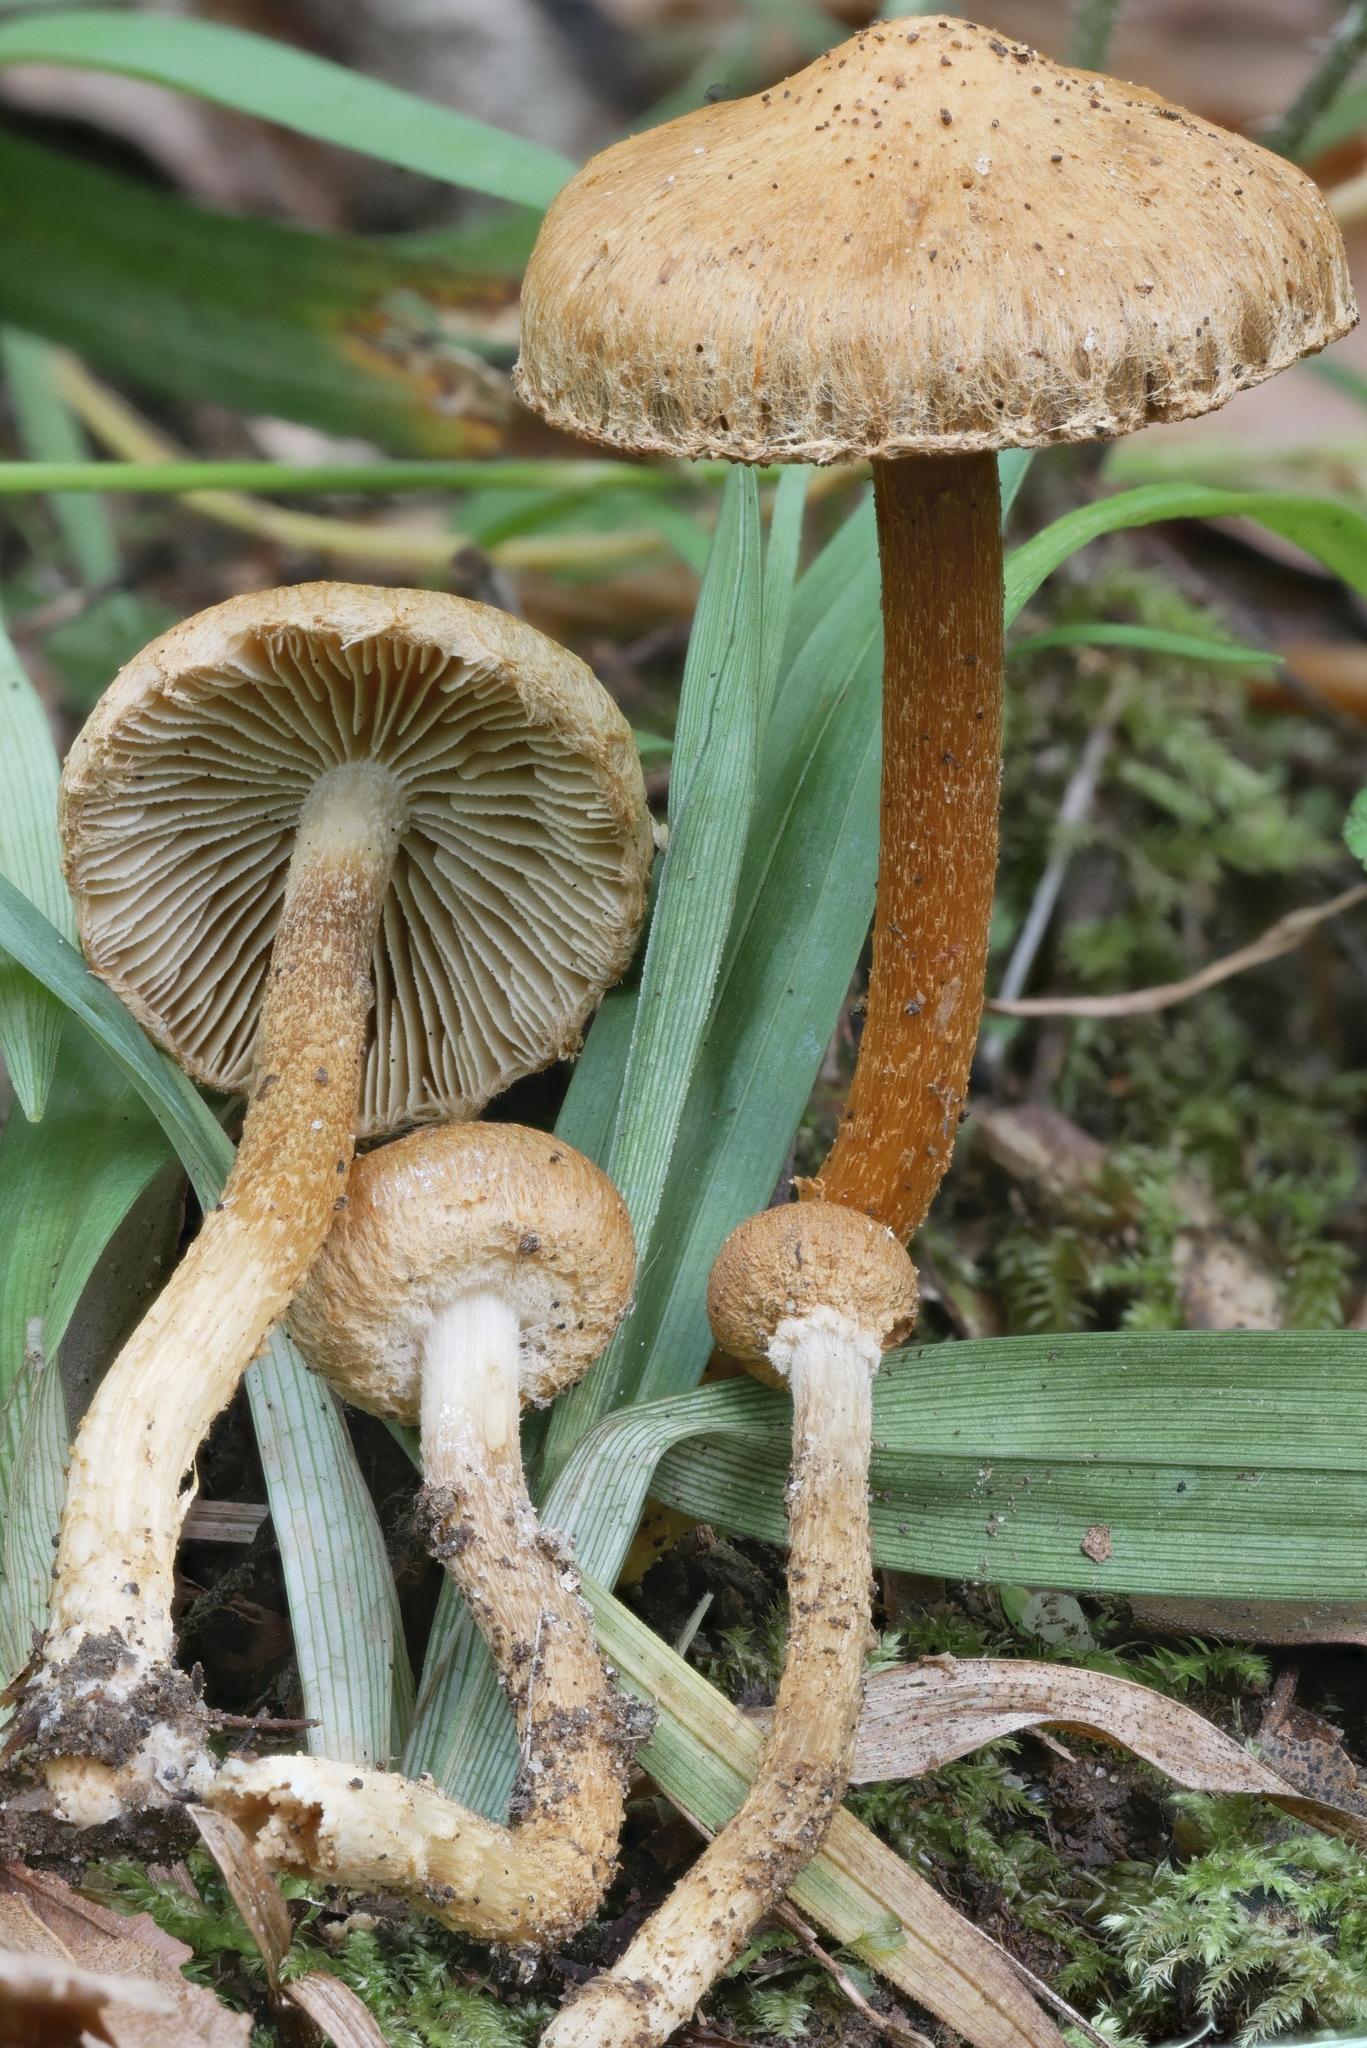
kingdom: Fungi
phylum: Basidiomycota
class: Agaricomycetes
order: Agaricales
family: Inocybaceae
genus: Inocybe
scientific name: Inocybe subochracea
